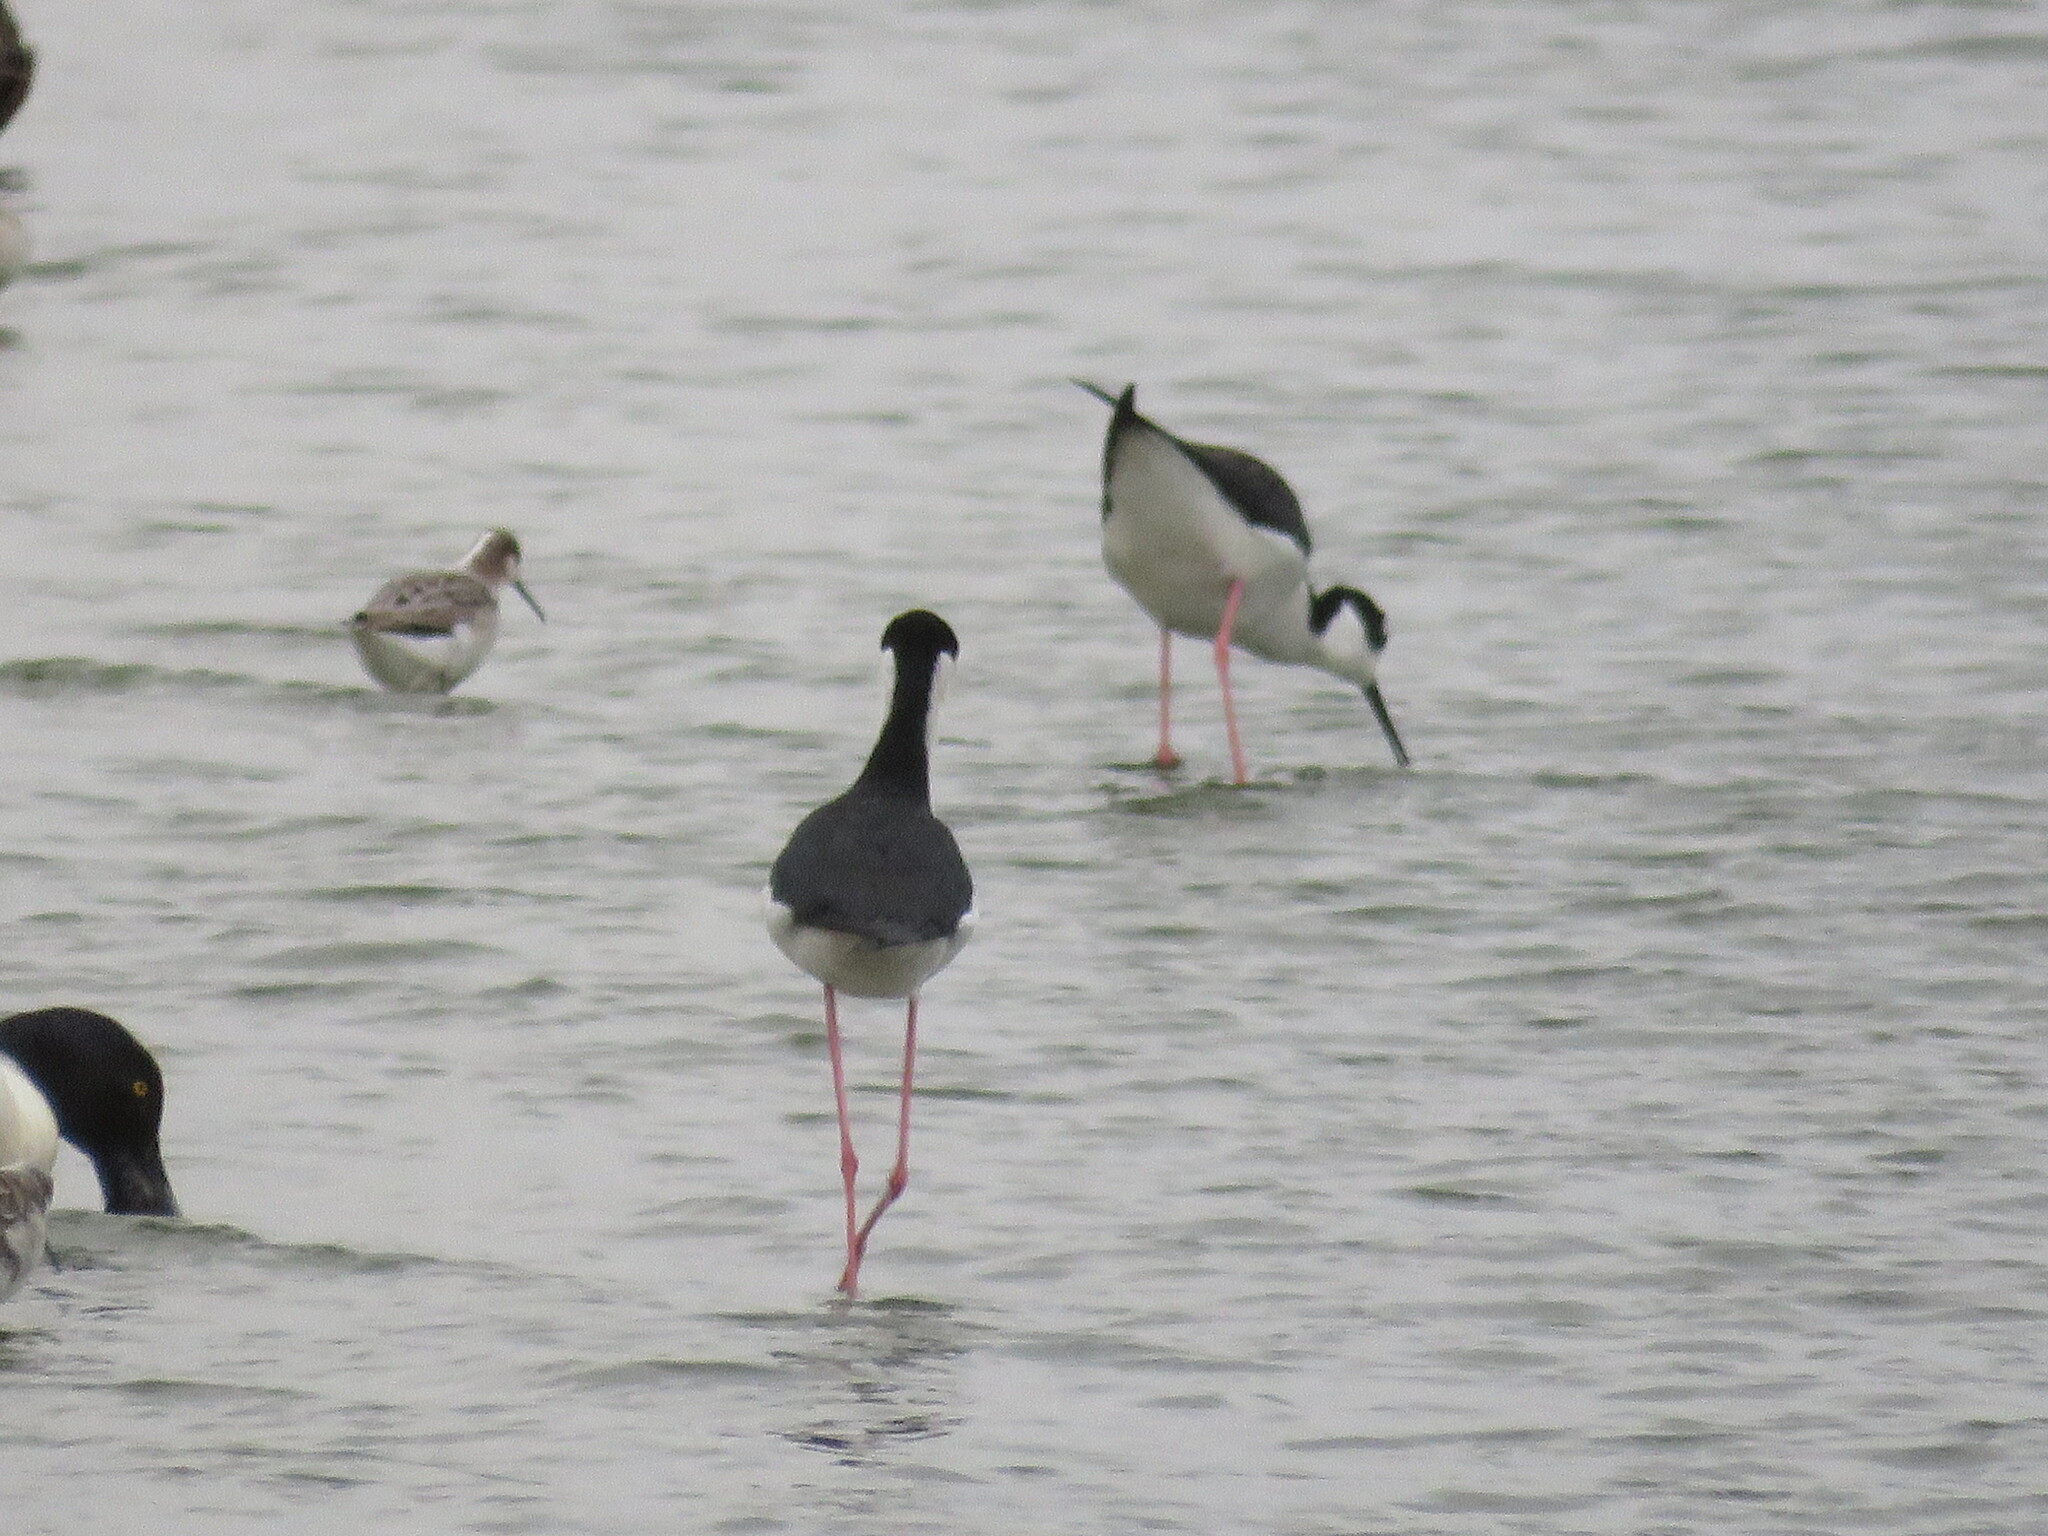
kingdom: Animalia
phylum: Chordata
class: Aves
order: Charadriiformes
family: Recurvirostridae
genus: Himantopus
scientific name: Himantopus mexicanus
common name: Black-necked stilt
